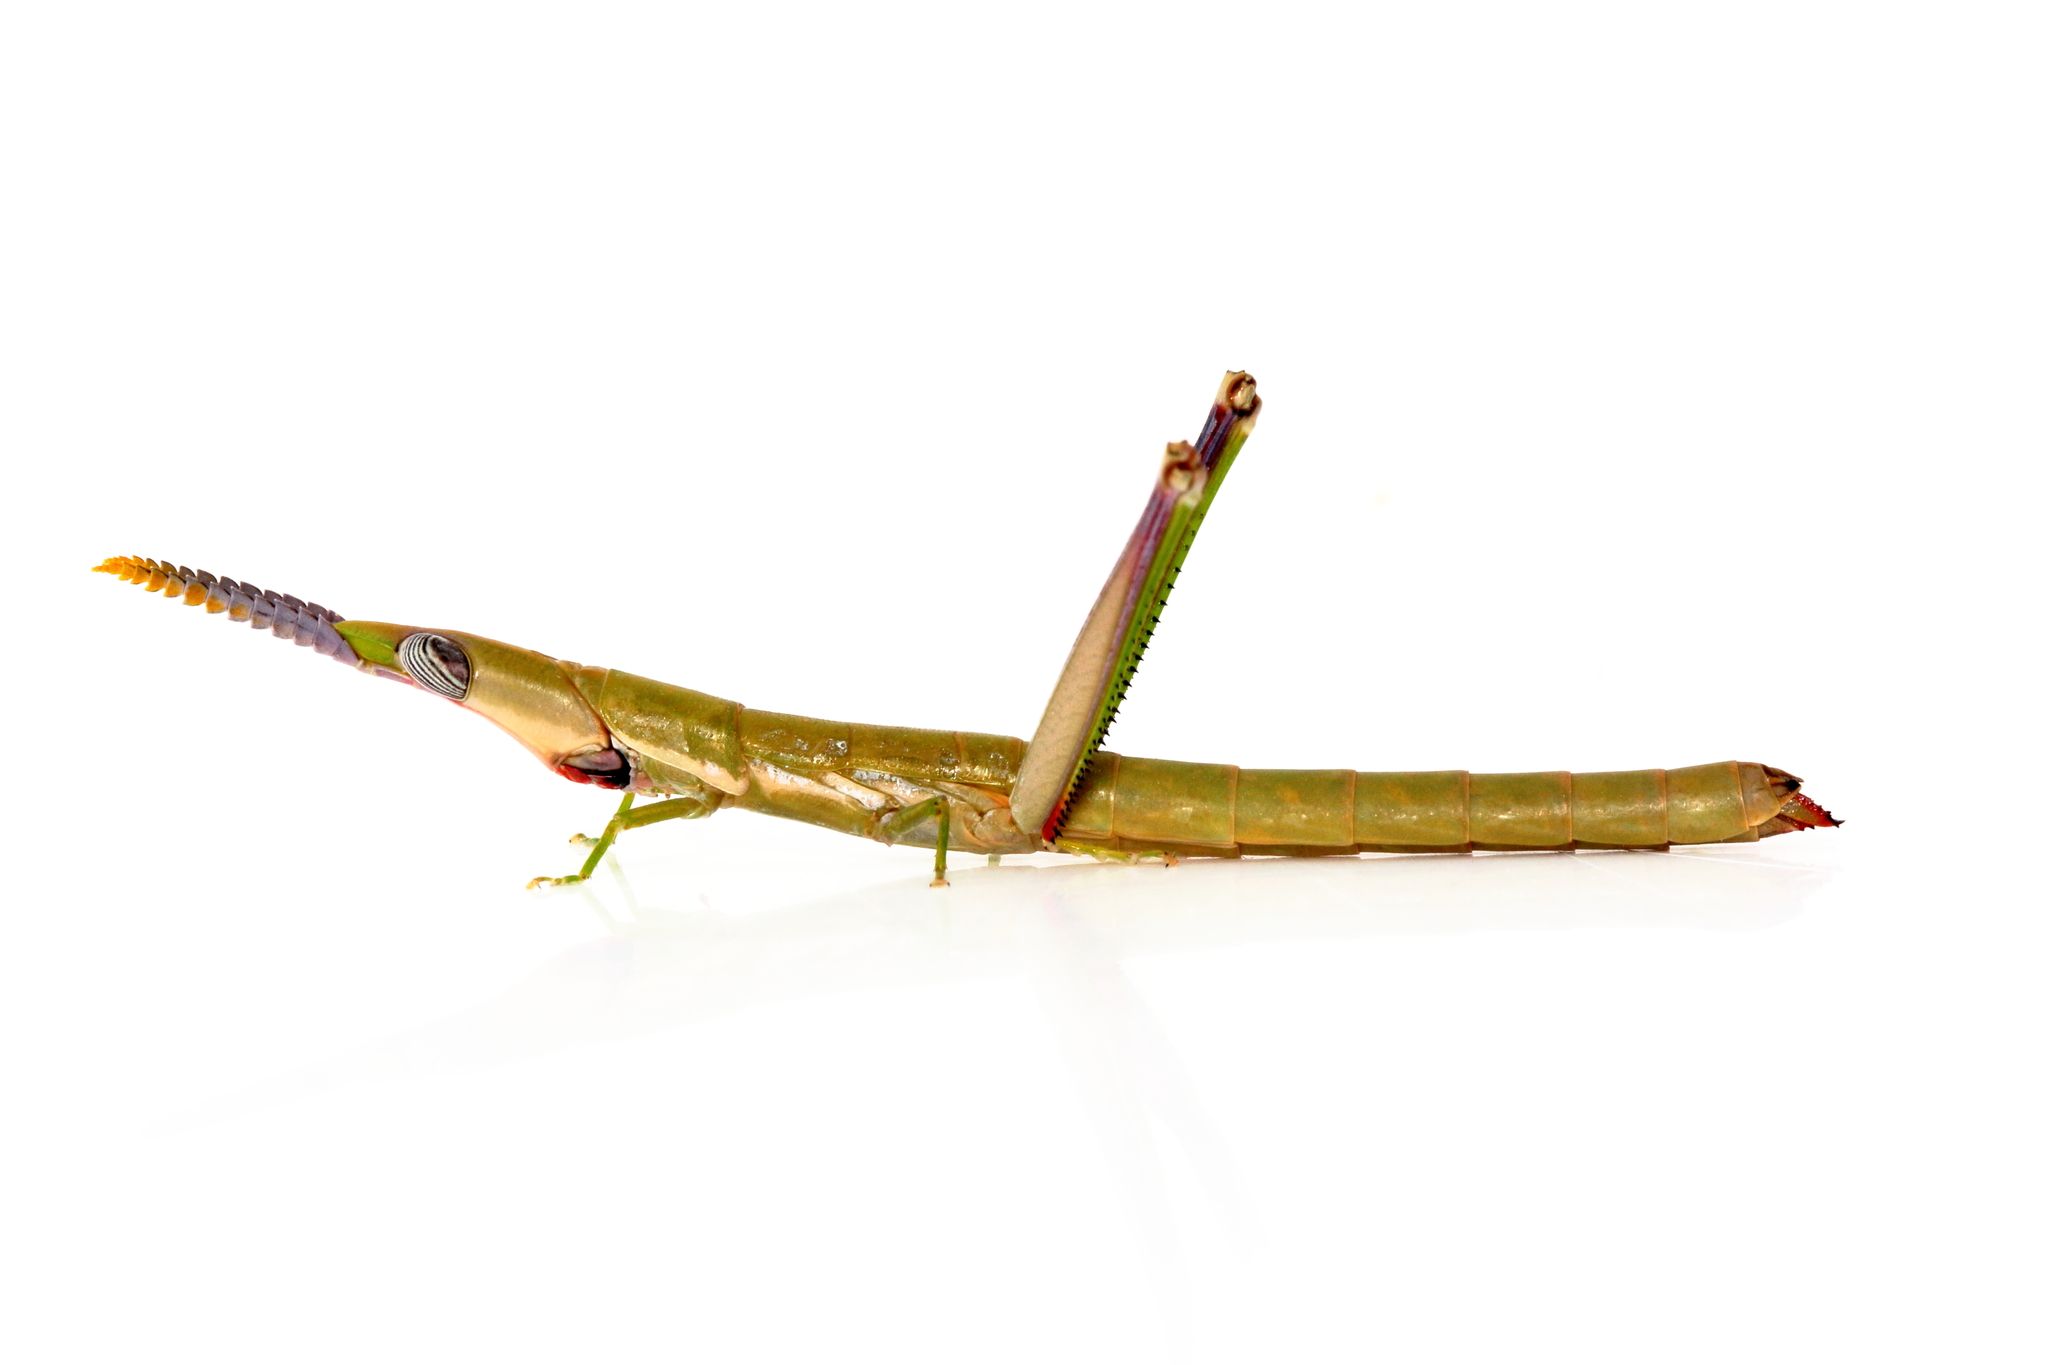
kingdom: Animalia
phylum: Arthropoda
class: Insecta
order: Orthoptera
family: Morabidae
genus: Warramaba
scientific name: Warramaba grandis
